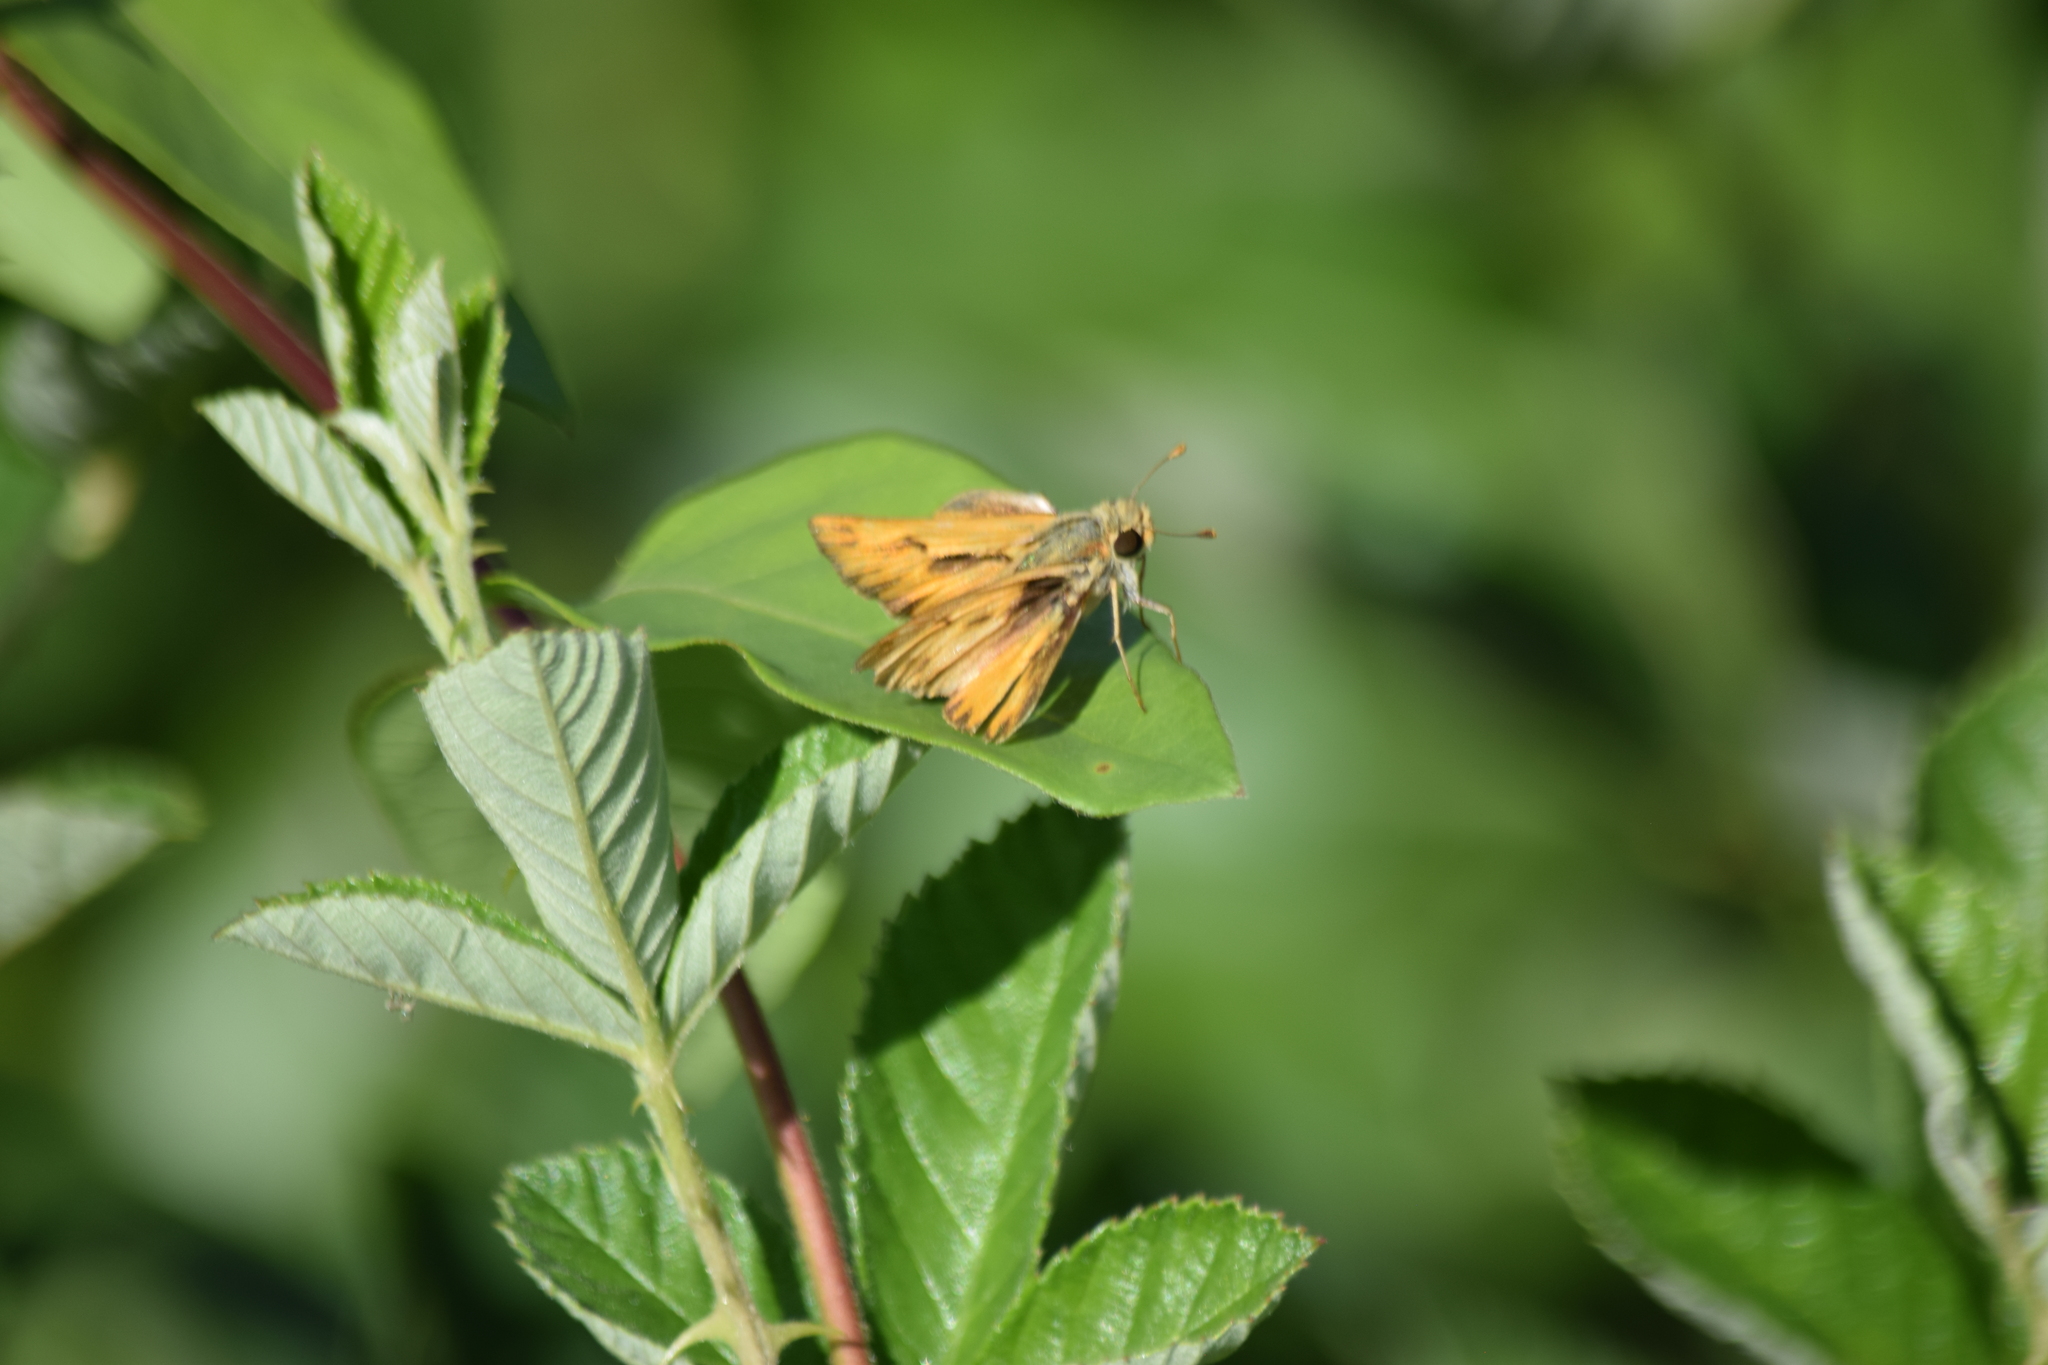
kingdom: Animalia
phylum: Arthropoda
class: Insecta
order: Lepidoptera
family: Hesperiidae
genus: Hylephila
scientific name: Hylephila phyleus
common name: Fiery skipper
